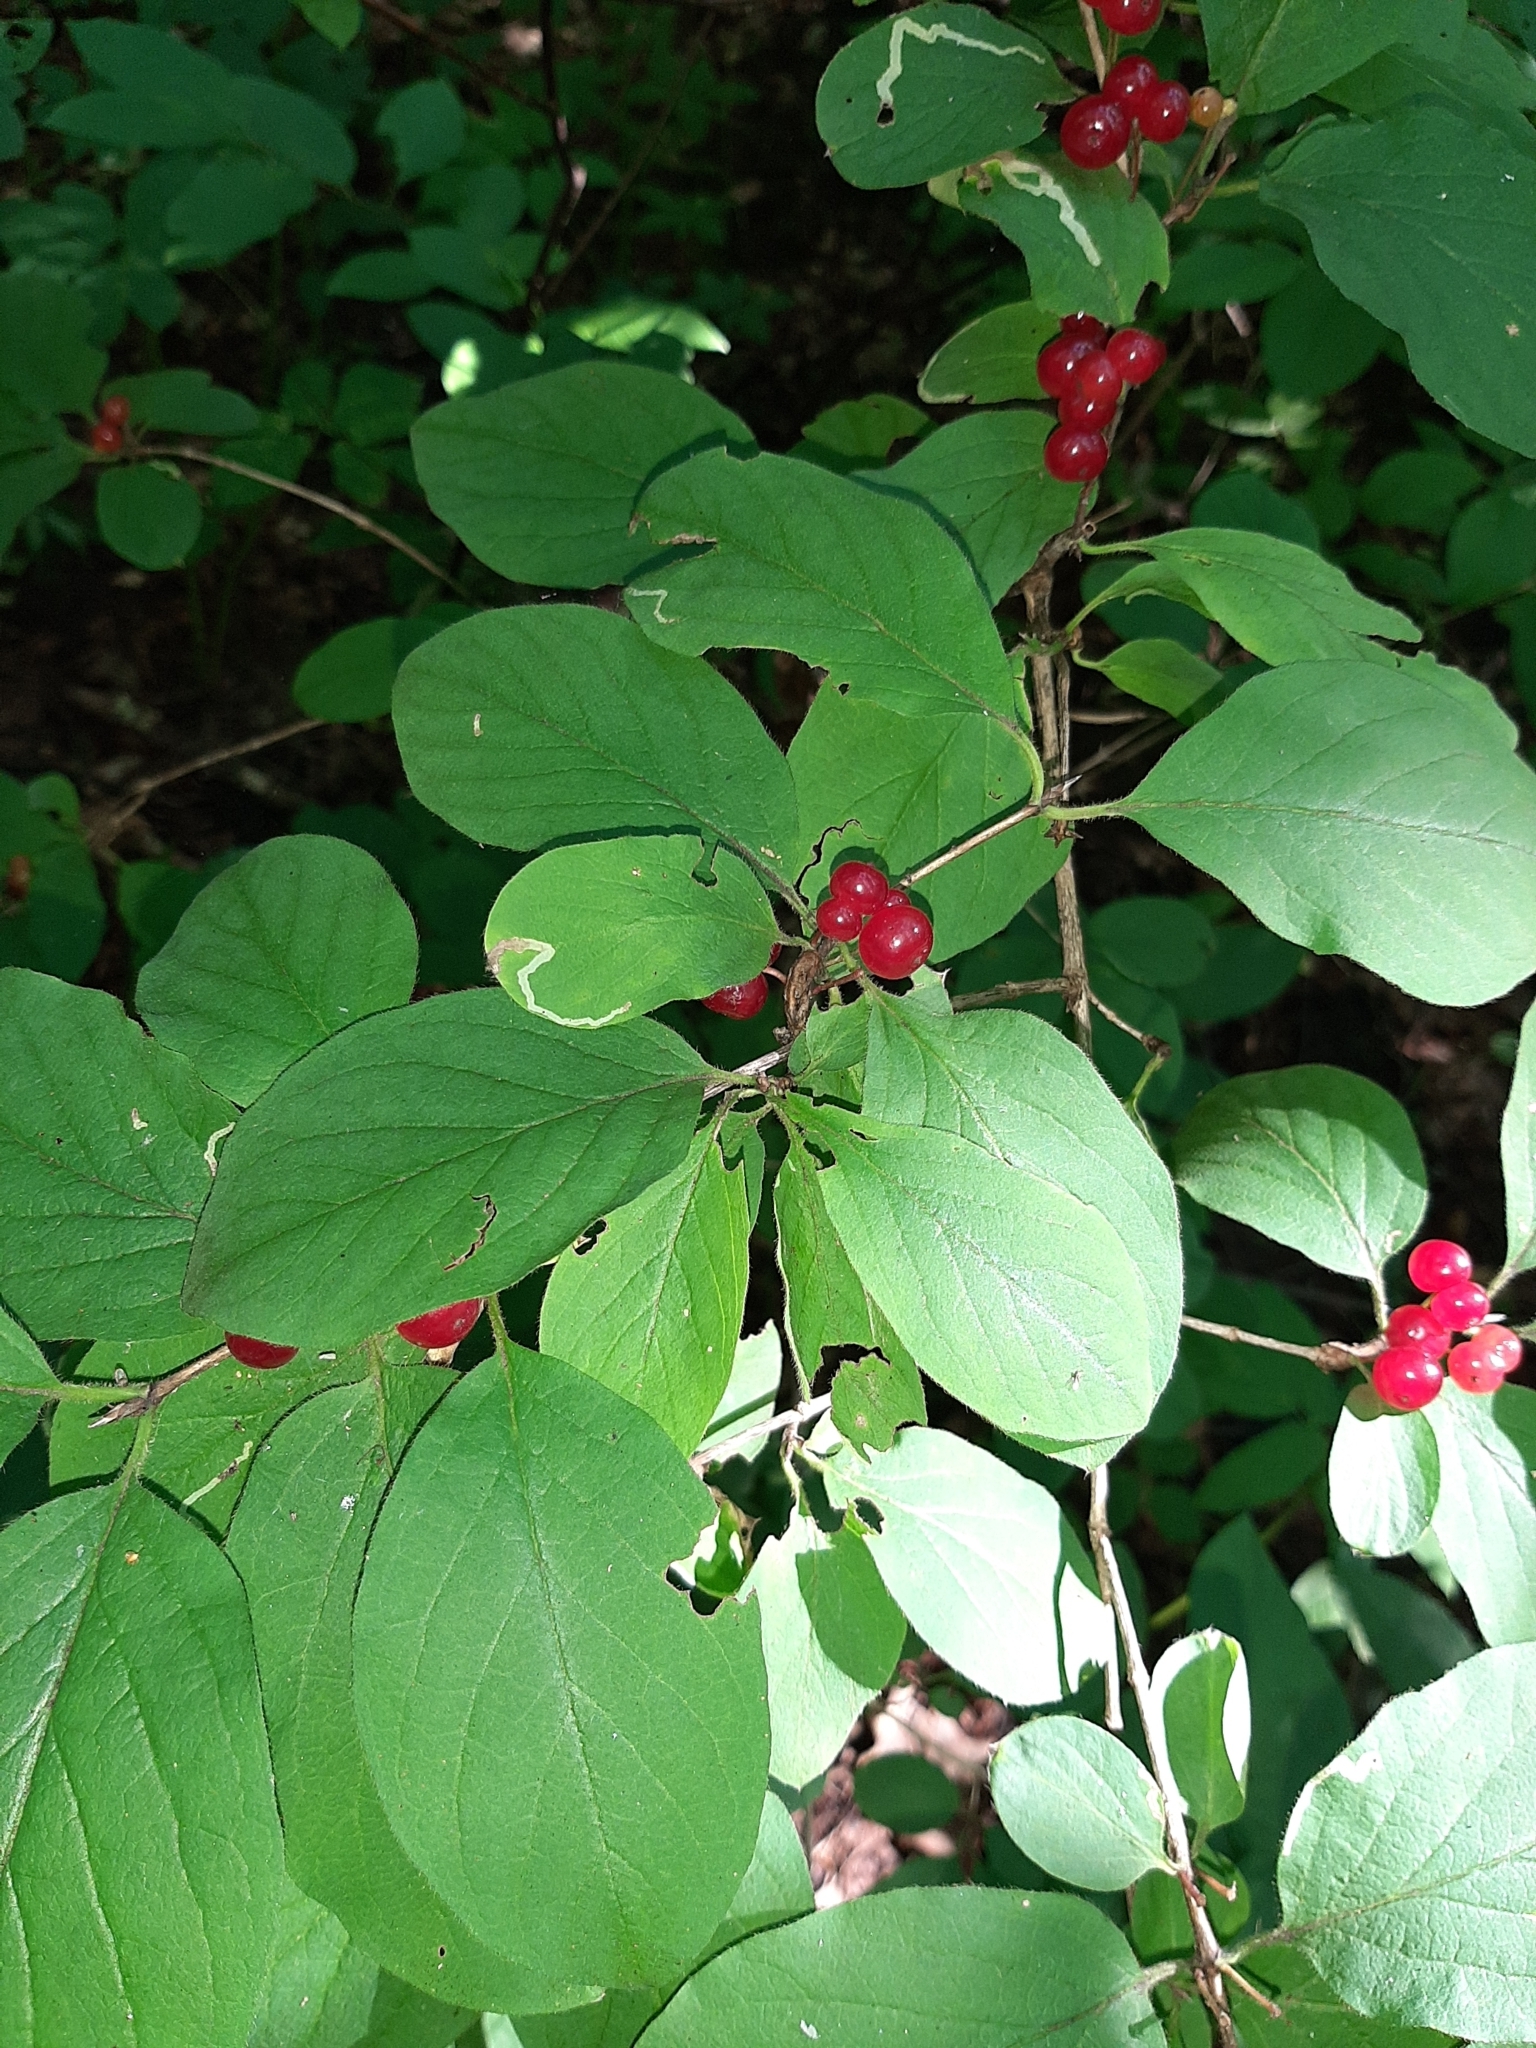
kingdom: Plantae
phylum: Tracheophyta
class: Magnoliopsida
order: Dipsacales
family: Caprifoliaceae
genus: Lonicera
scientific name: Lonicera xylosteum
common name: Fly honeysuckle
